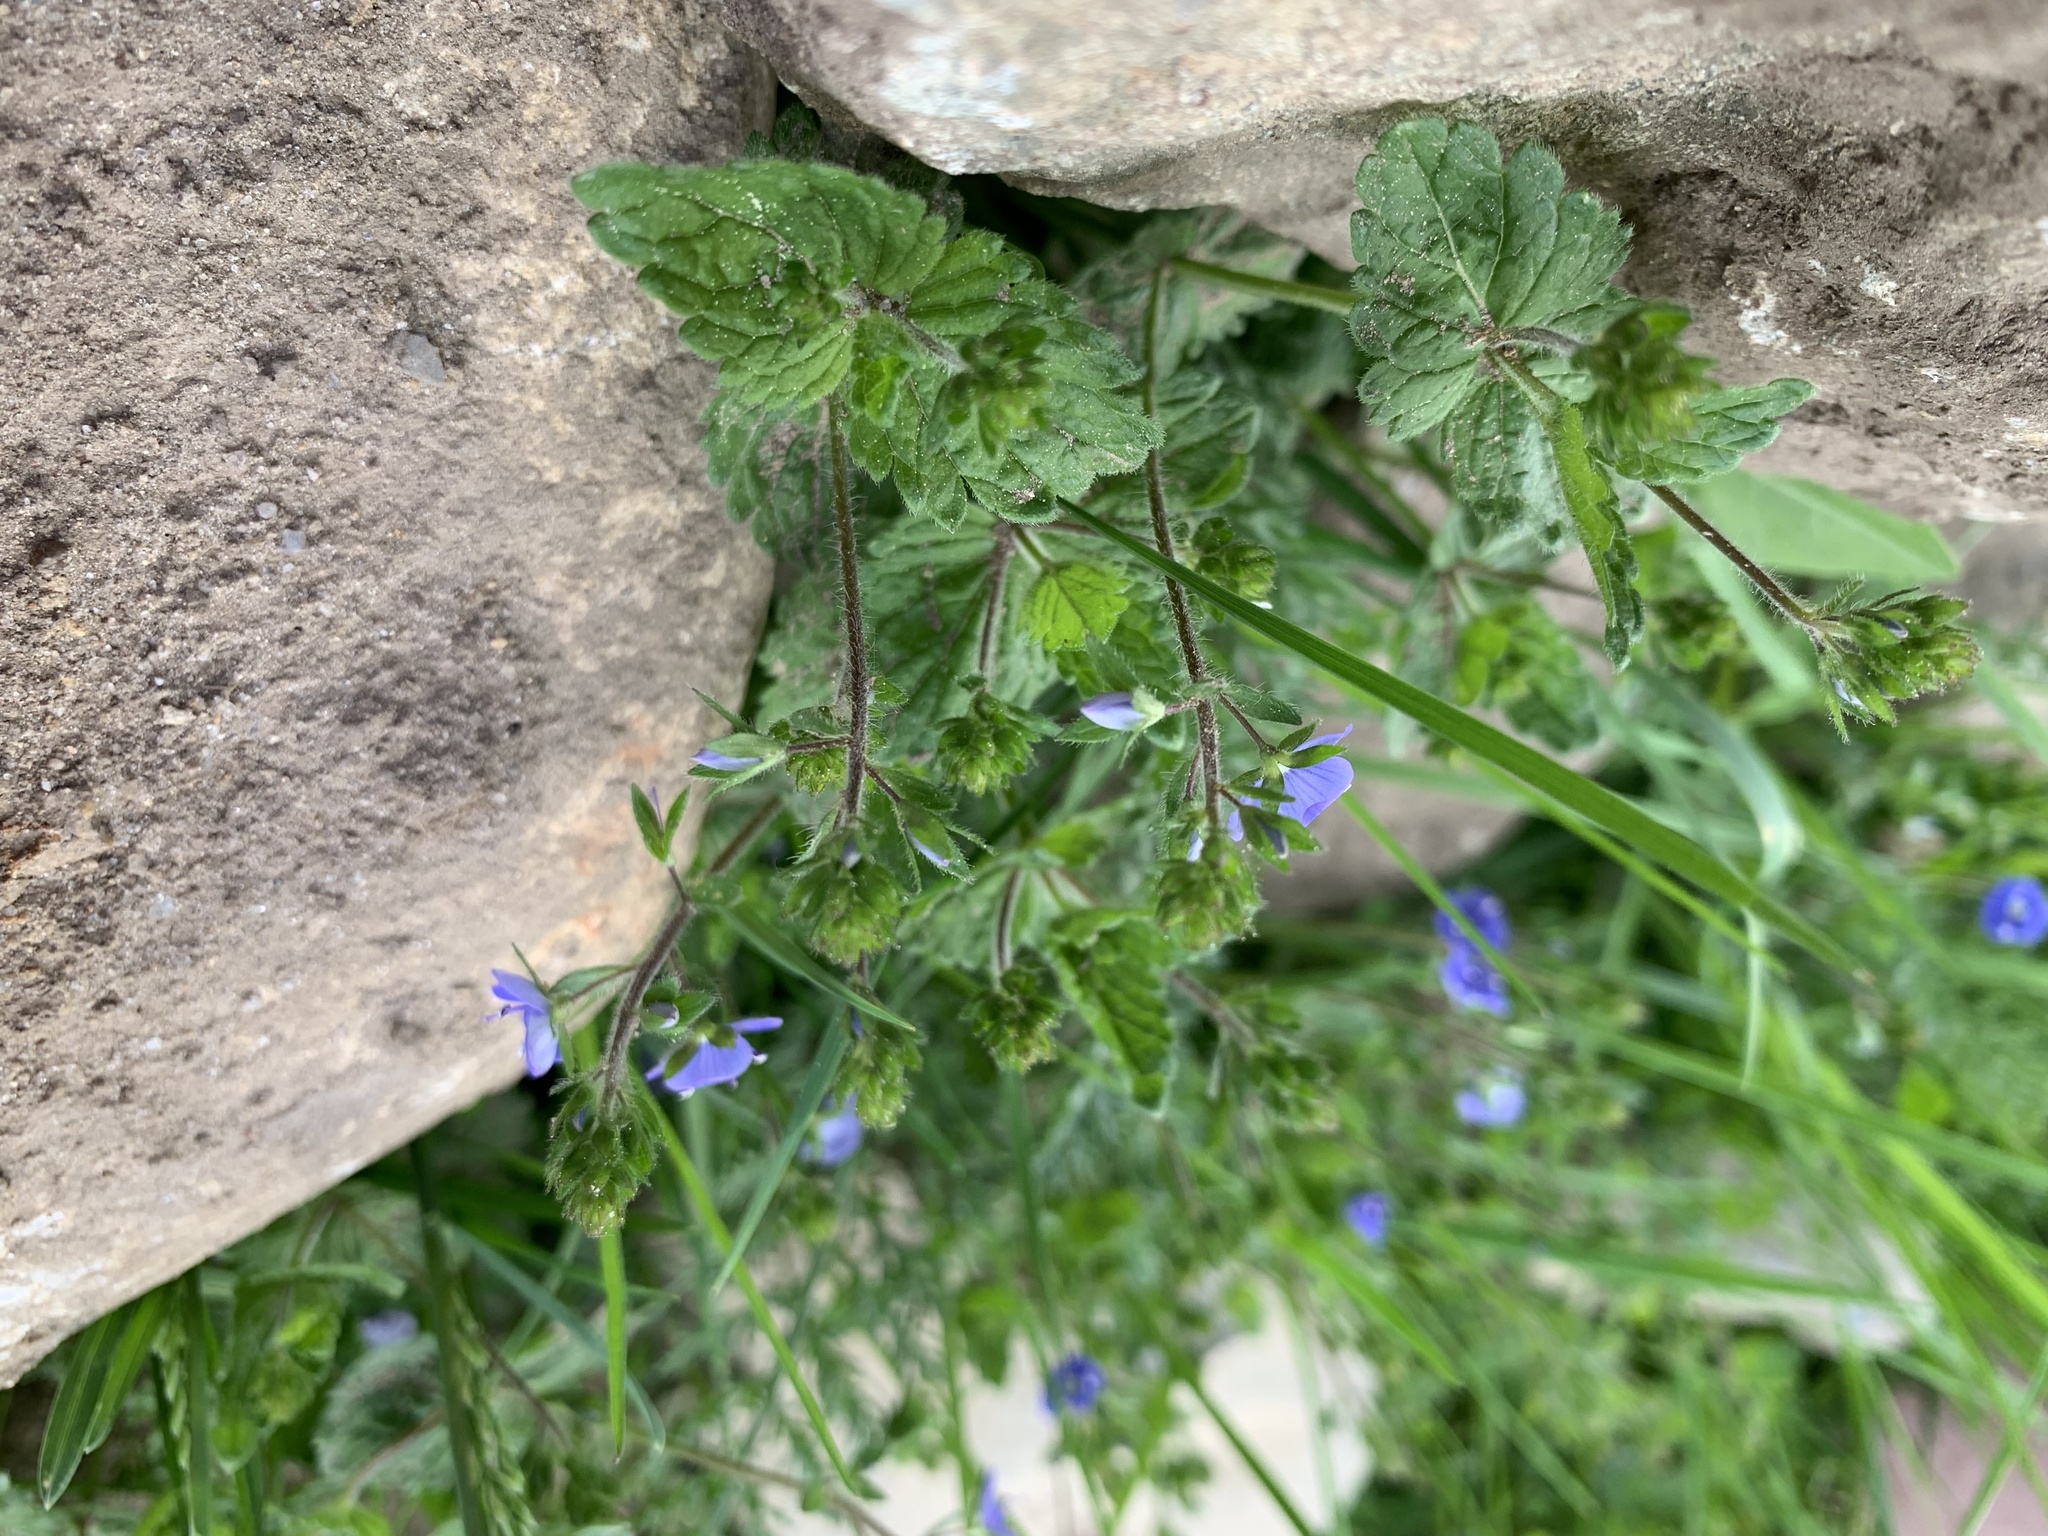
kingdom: Plantae
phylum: Tracheophyta
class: Magnoliopsida
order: Lamiales
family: Plantaginaceae
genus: Veronica
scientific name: Veronica chamaedrys
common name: Germander speedwell
